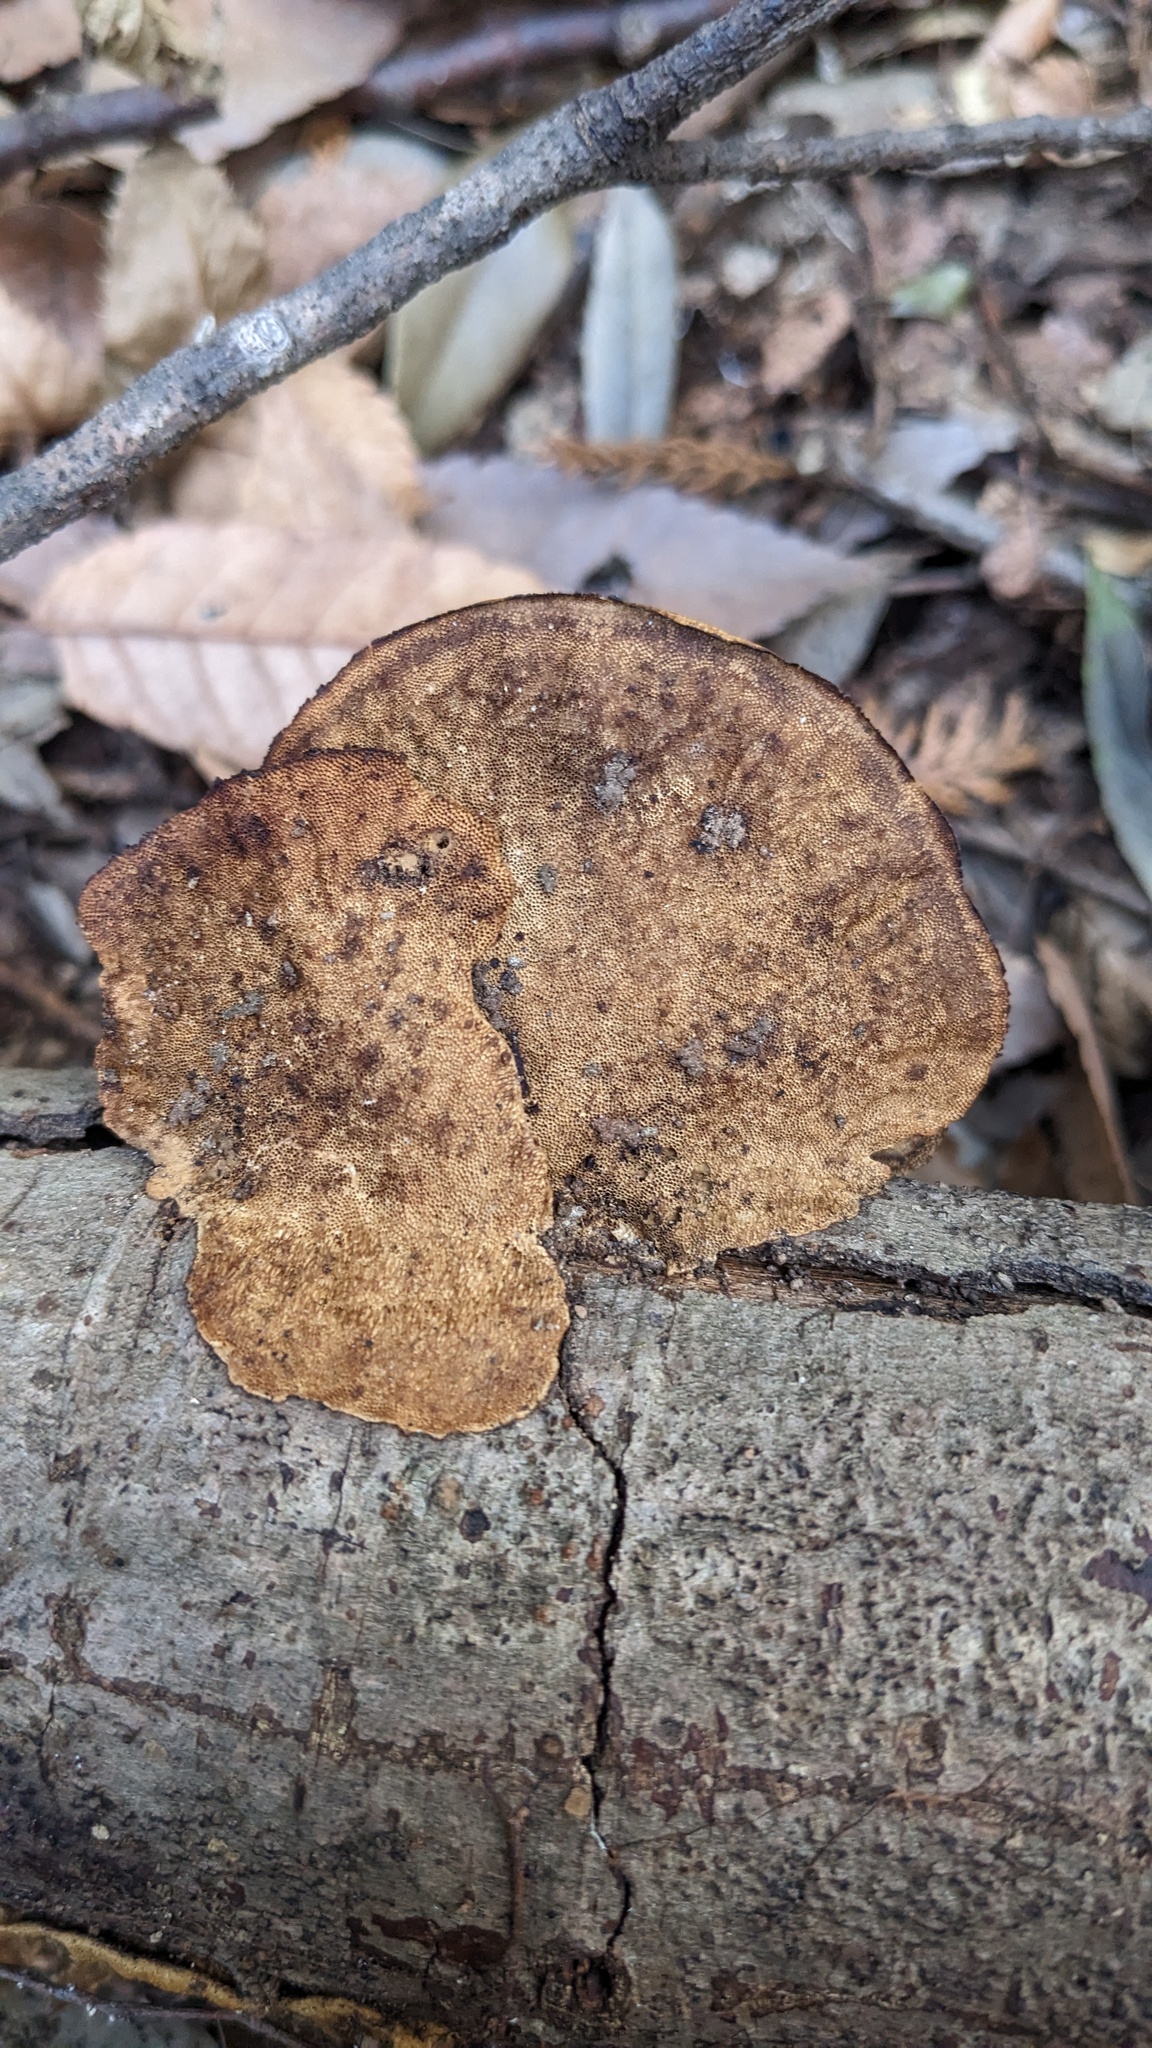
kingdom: Fungi
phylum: Basidiomycota
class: Agaricomycetes
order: Polyporales
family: Polyporaceae
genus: Trametes
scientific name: Trametes strumosa
